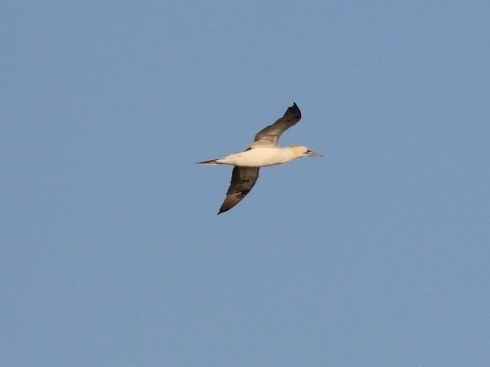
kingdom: Animalia
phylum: Chordata
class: Aves
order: Suliformes
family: Sulidae
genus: Morus
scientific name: Morus bassanus
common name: Northern gannet
